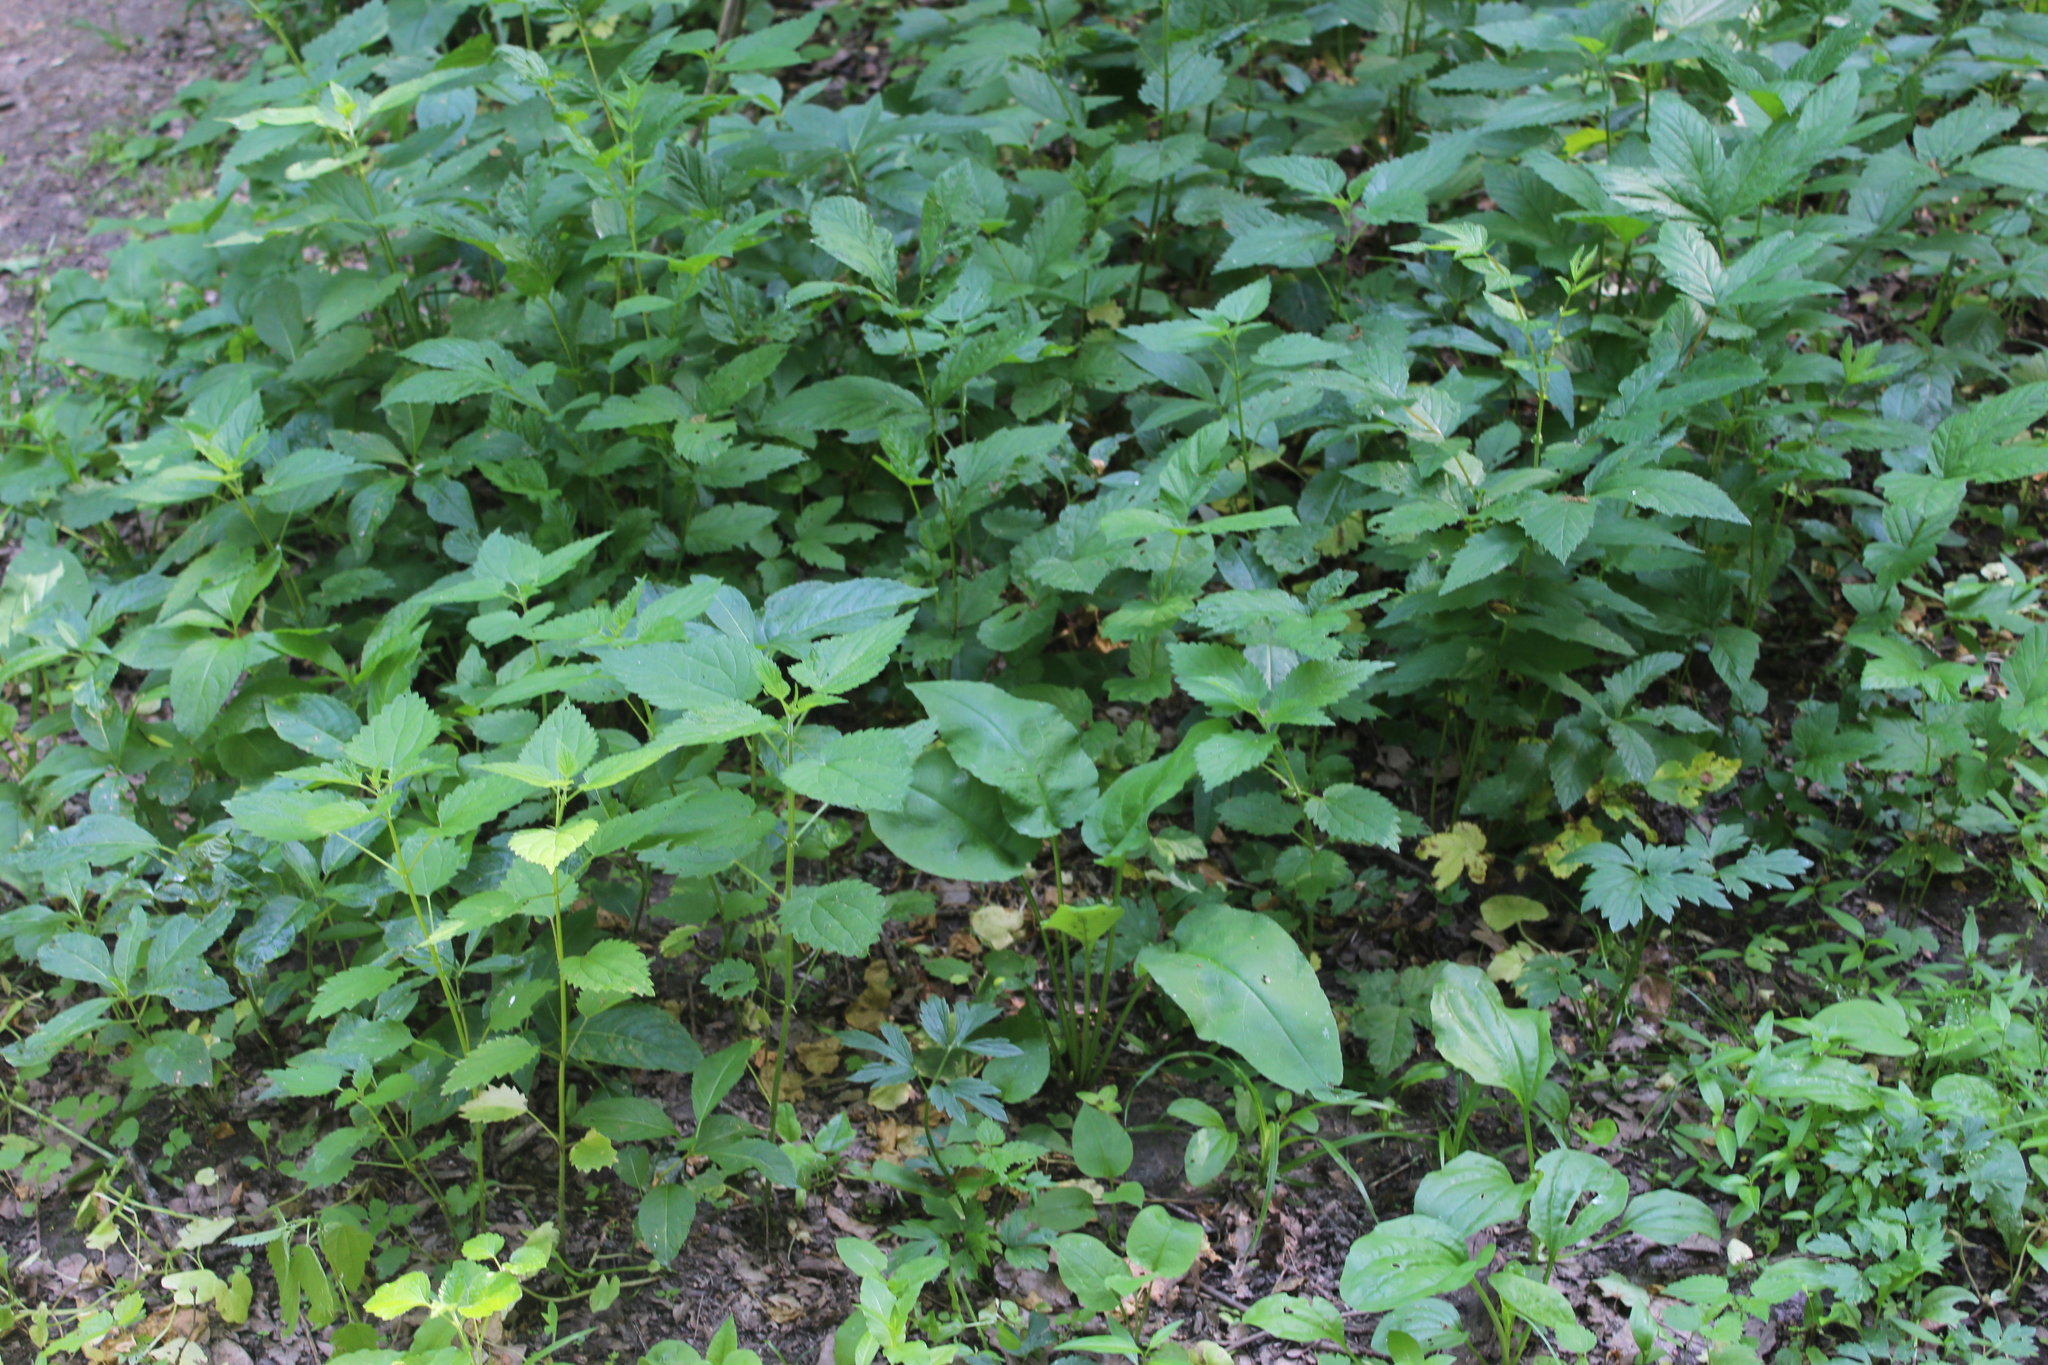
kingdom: Plantae
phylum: Tracheophyta
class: Magnoliopsida
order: Rosales
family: Urticaceae
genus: Urtica
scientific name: Urtica dioica
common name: Common nettle
